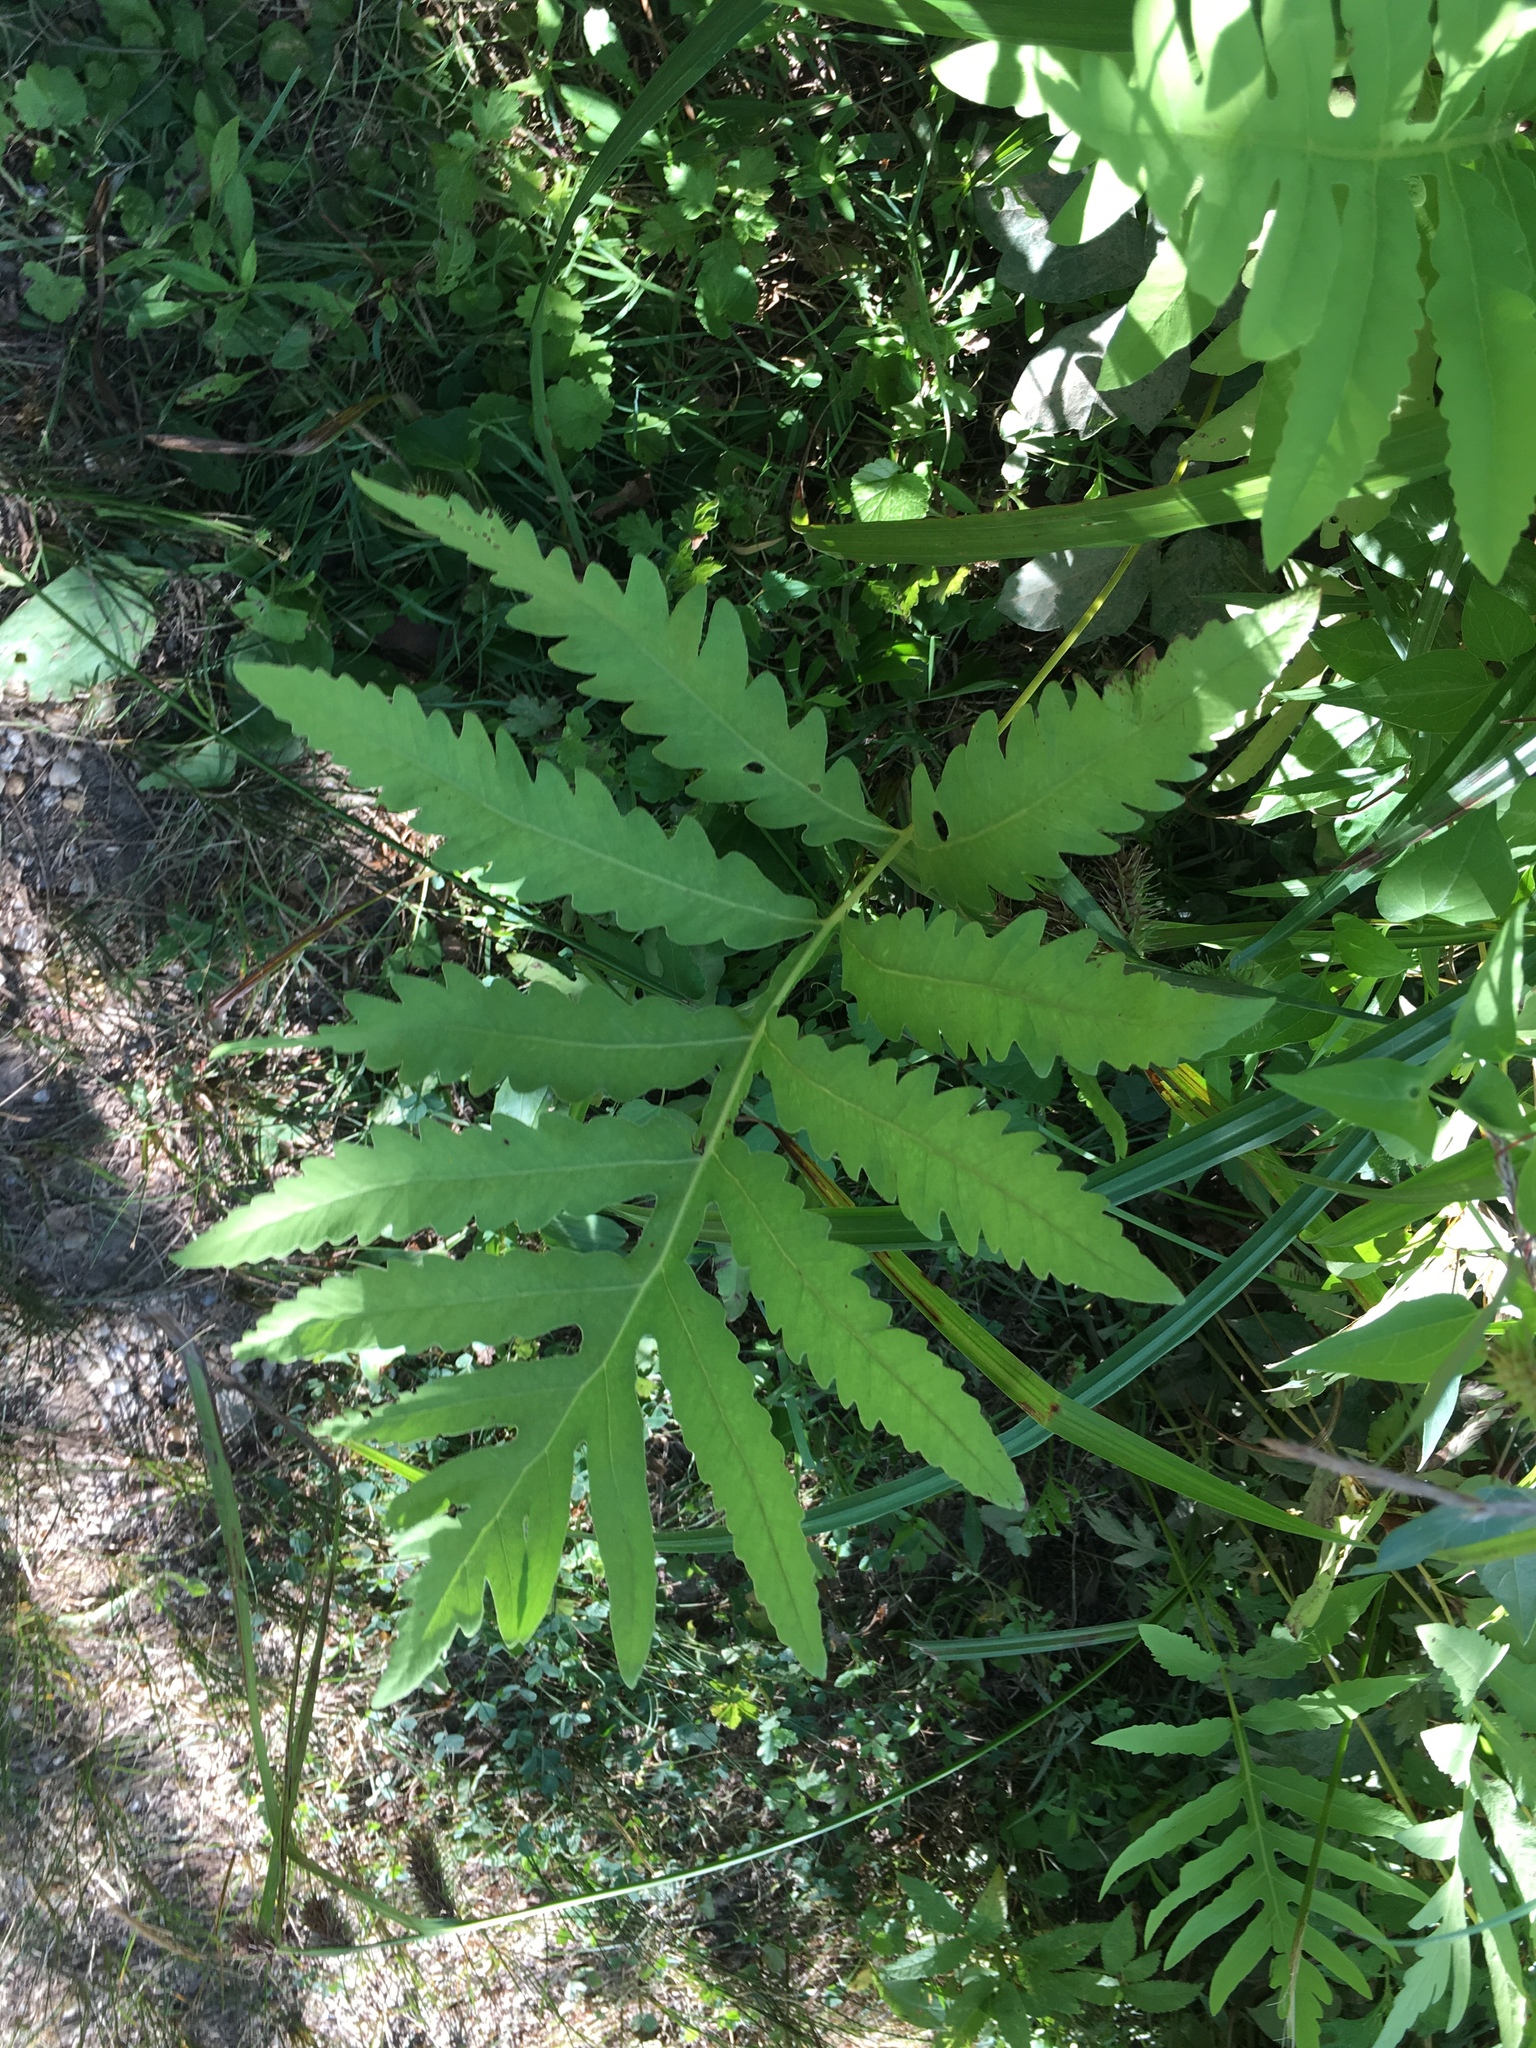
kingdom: Plantae
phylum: Tracheophyta
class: Polypodiopsida
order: Polypodiales
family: Onocleaceae
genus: Onoclea
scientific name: Onoclea sensibilis
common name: Sensitive fern
